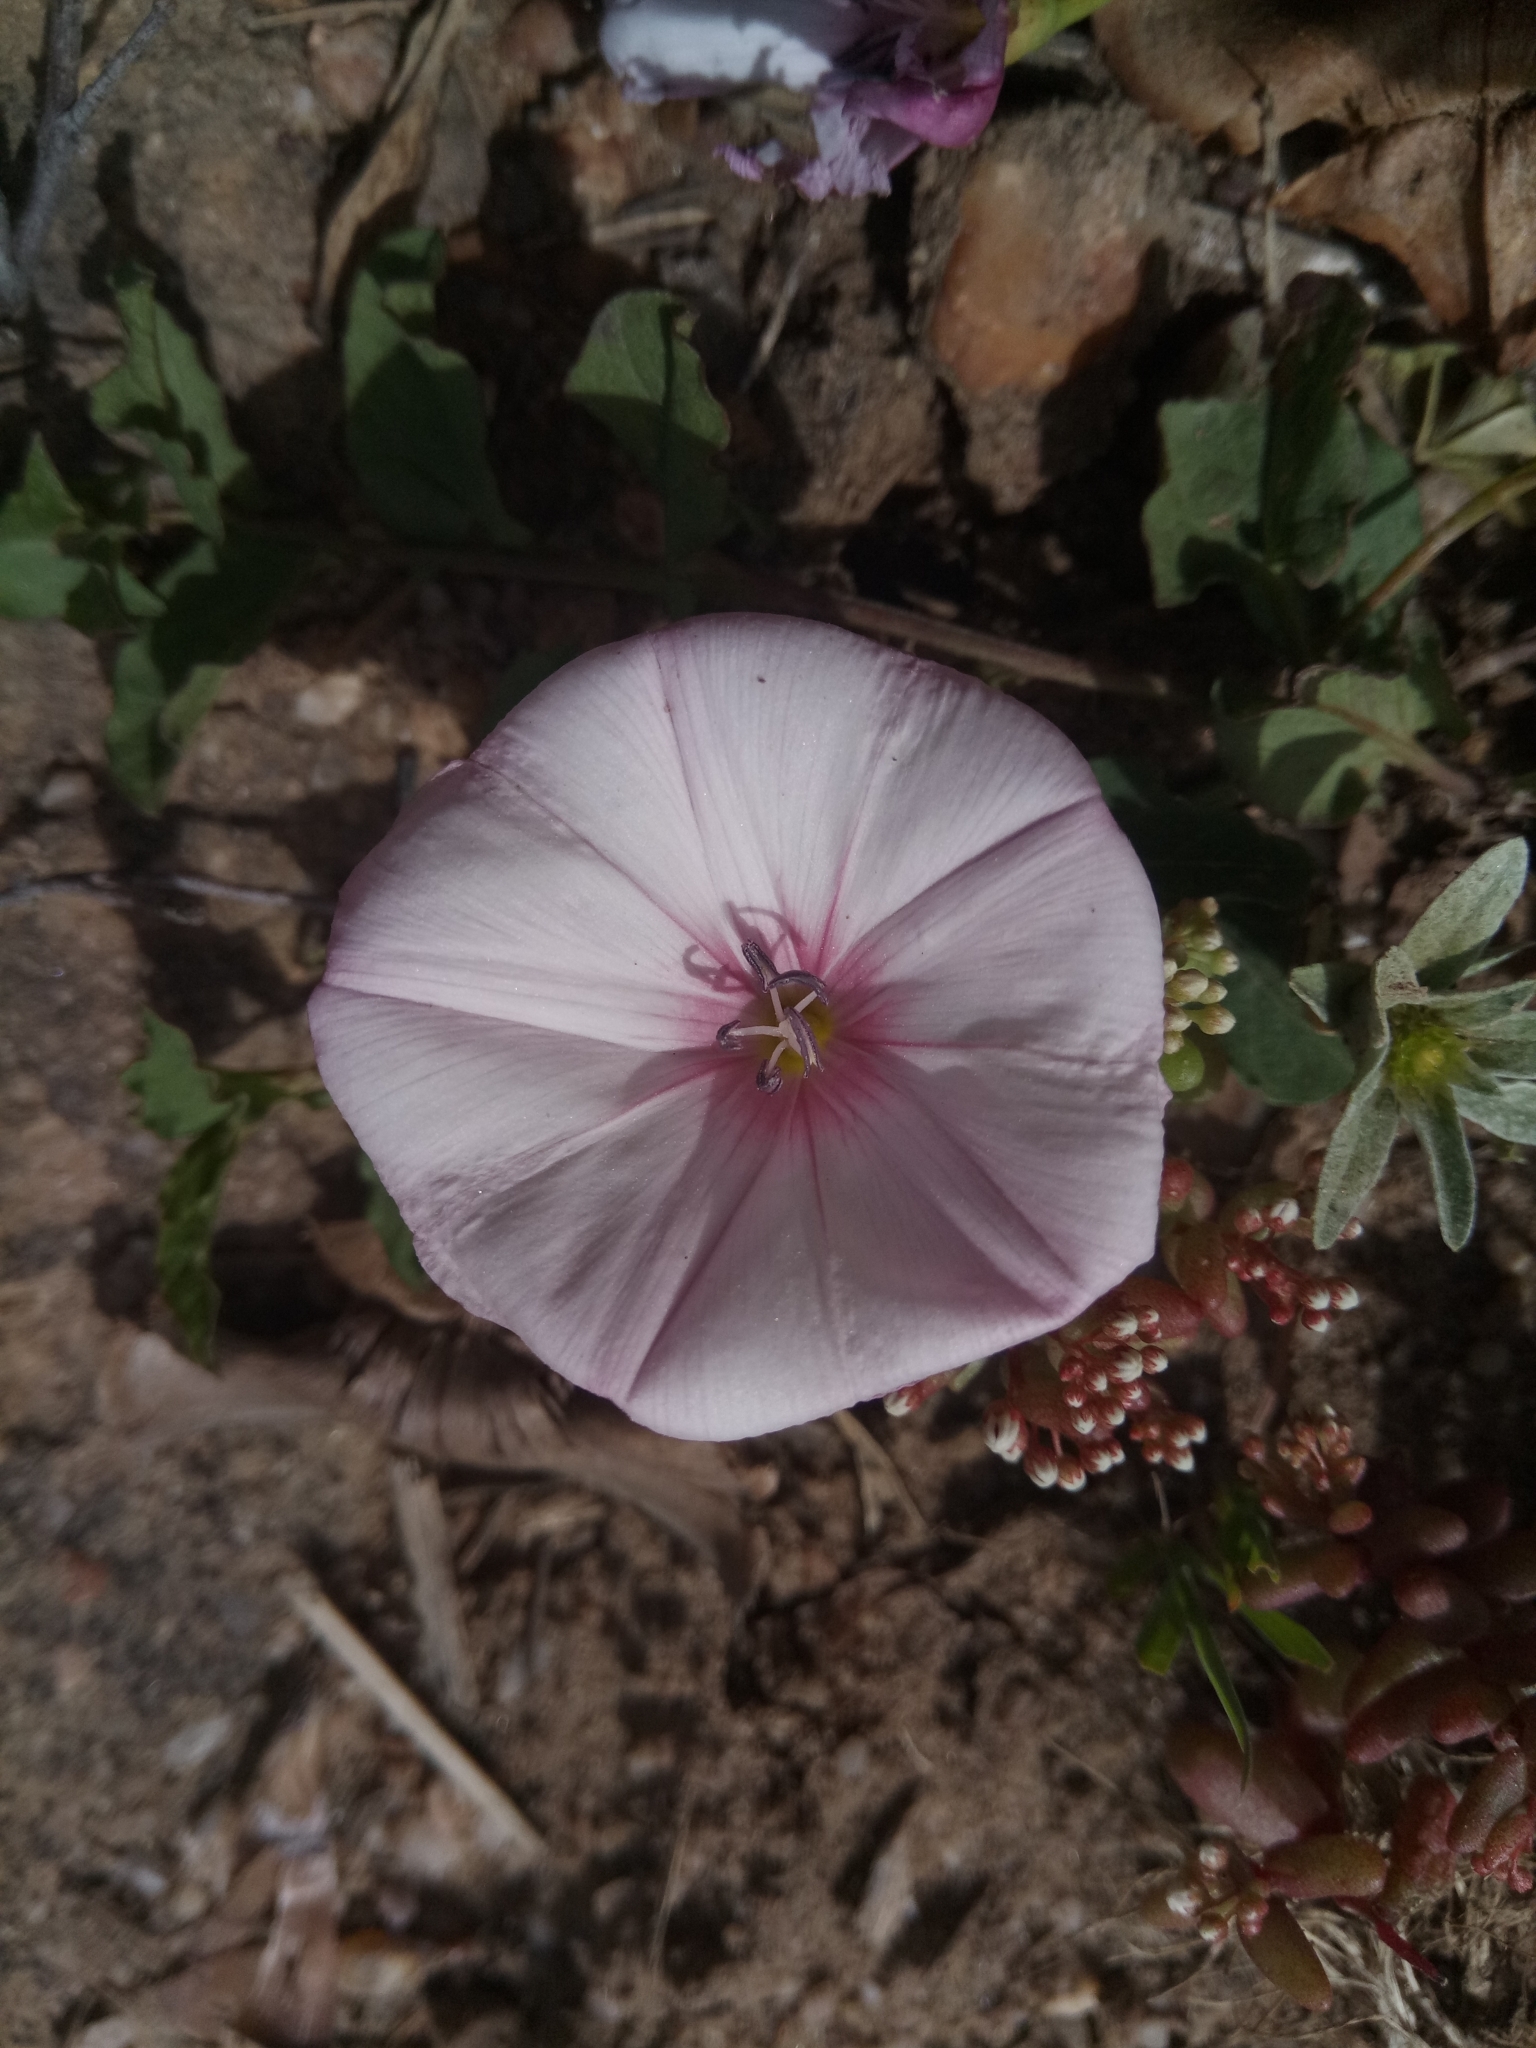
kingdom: Plantae
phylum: Tracheophyta
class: Magnoliopsida
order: Solanales
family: Convolvulaceae
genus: Convolvulus
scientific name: Convolvulus durandoi
